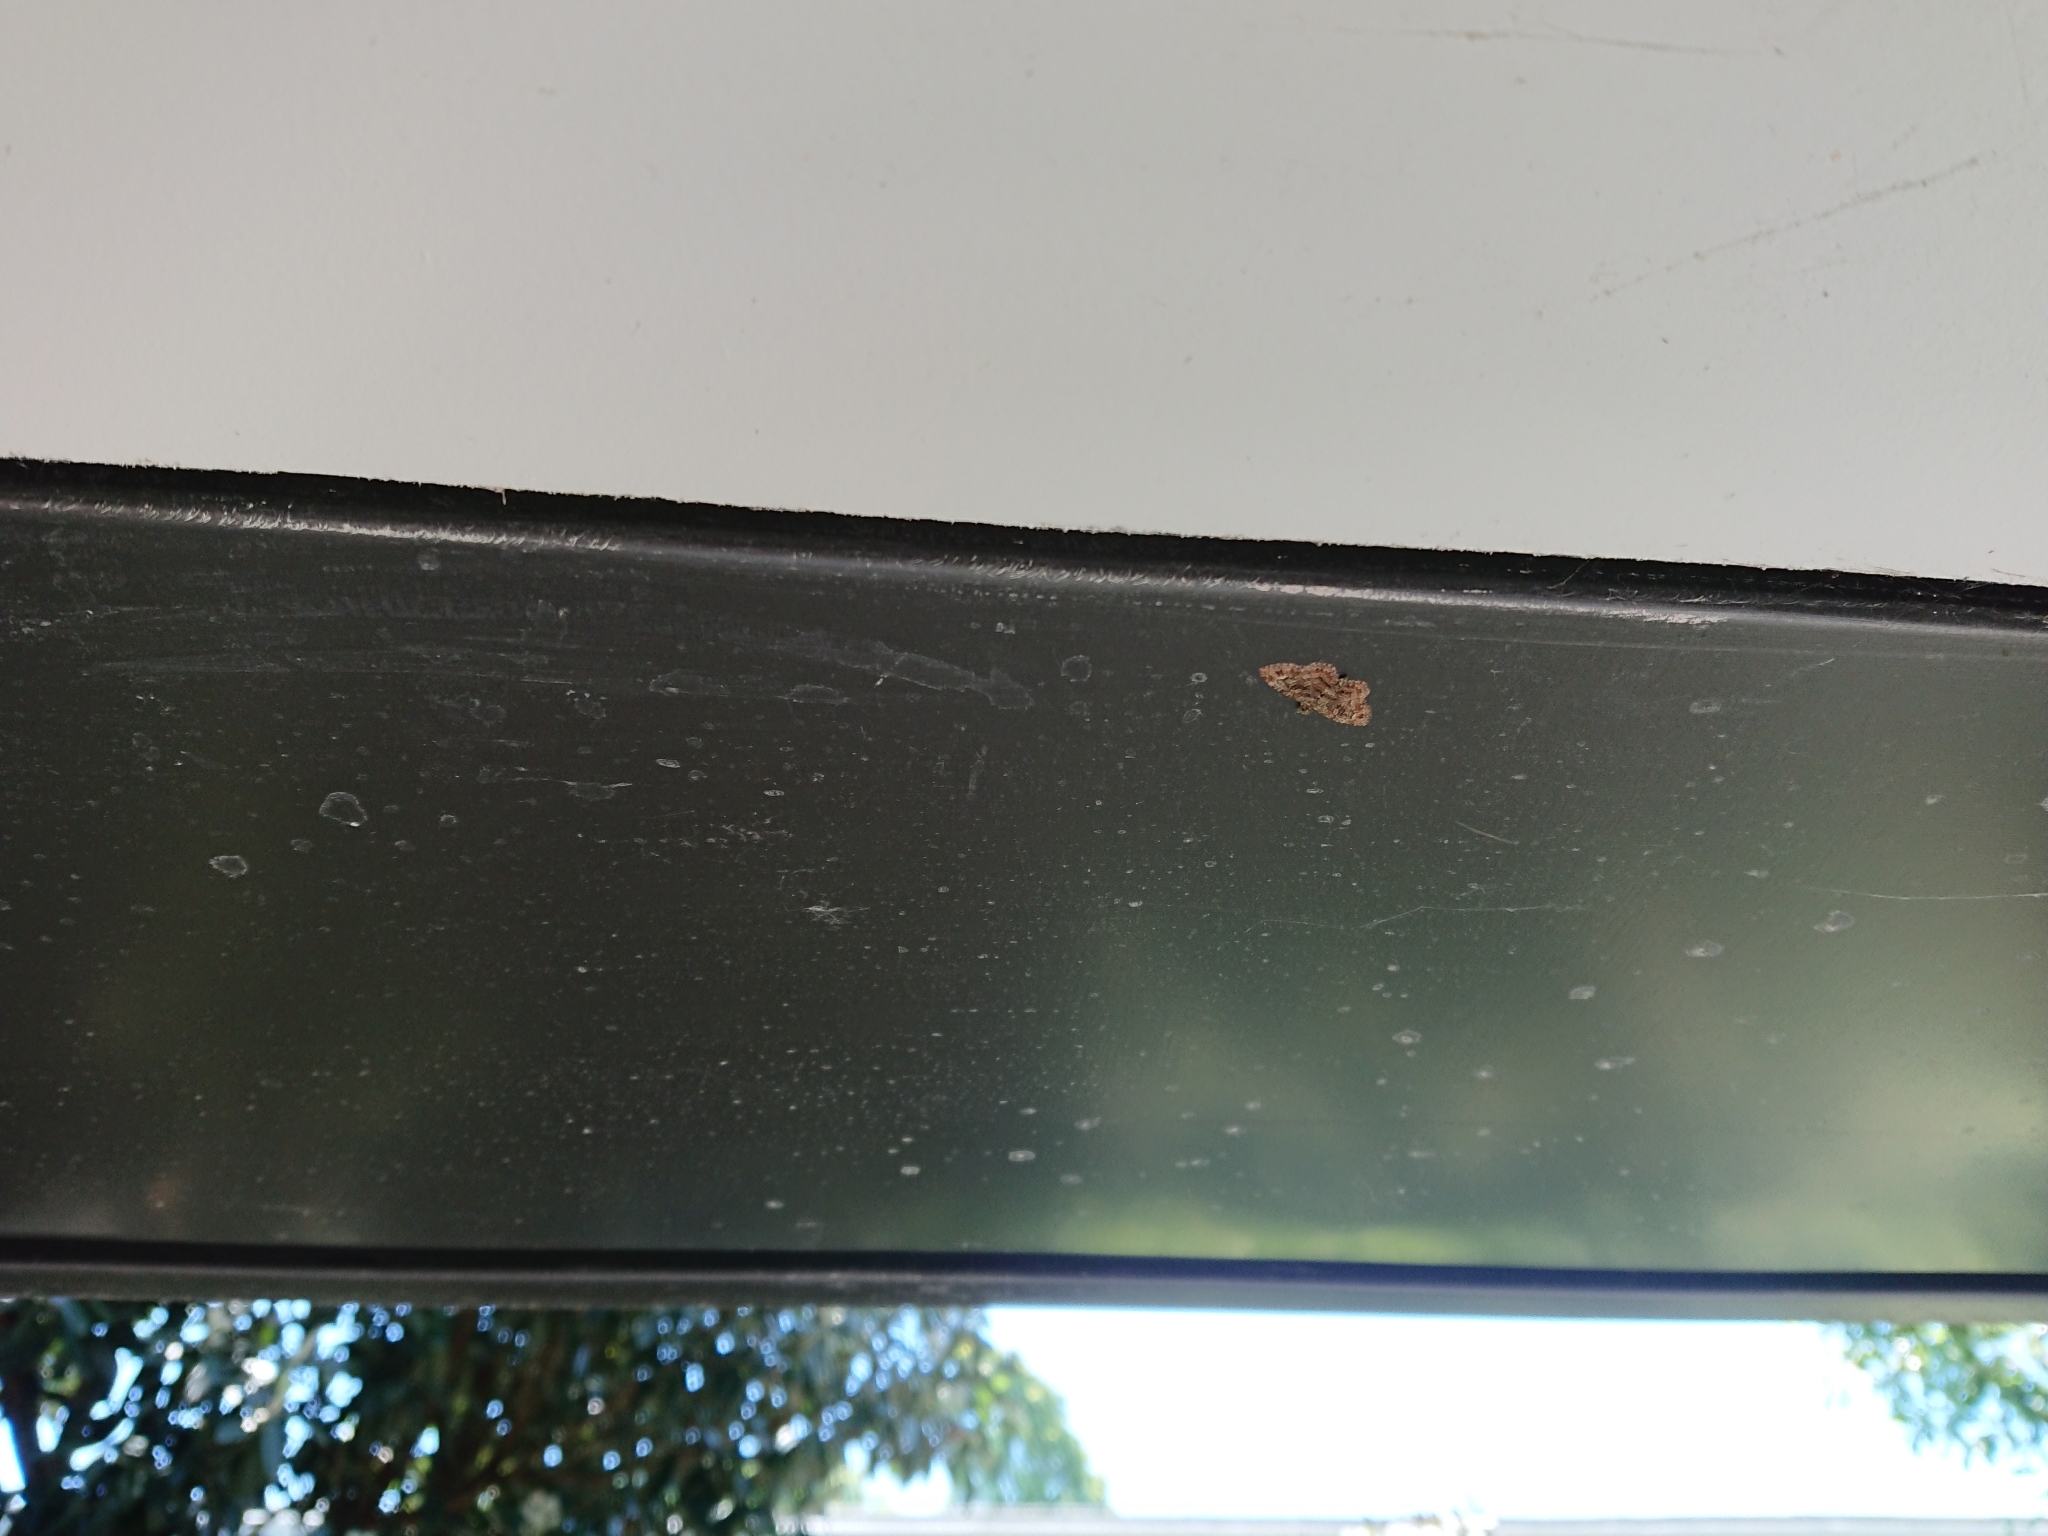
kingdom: Animalia
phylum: Arthropoda
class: Insecta
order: Lepidoptera
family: Geometridae
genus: Pasiphilodes
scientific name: Pasiphilodes testulata
